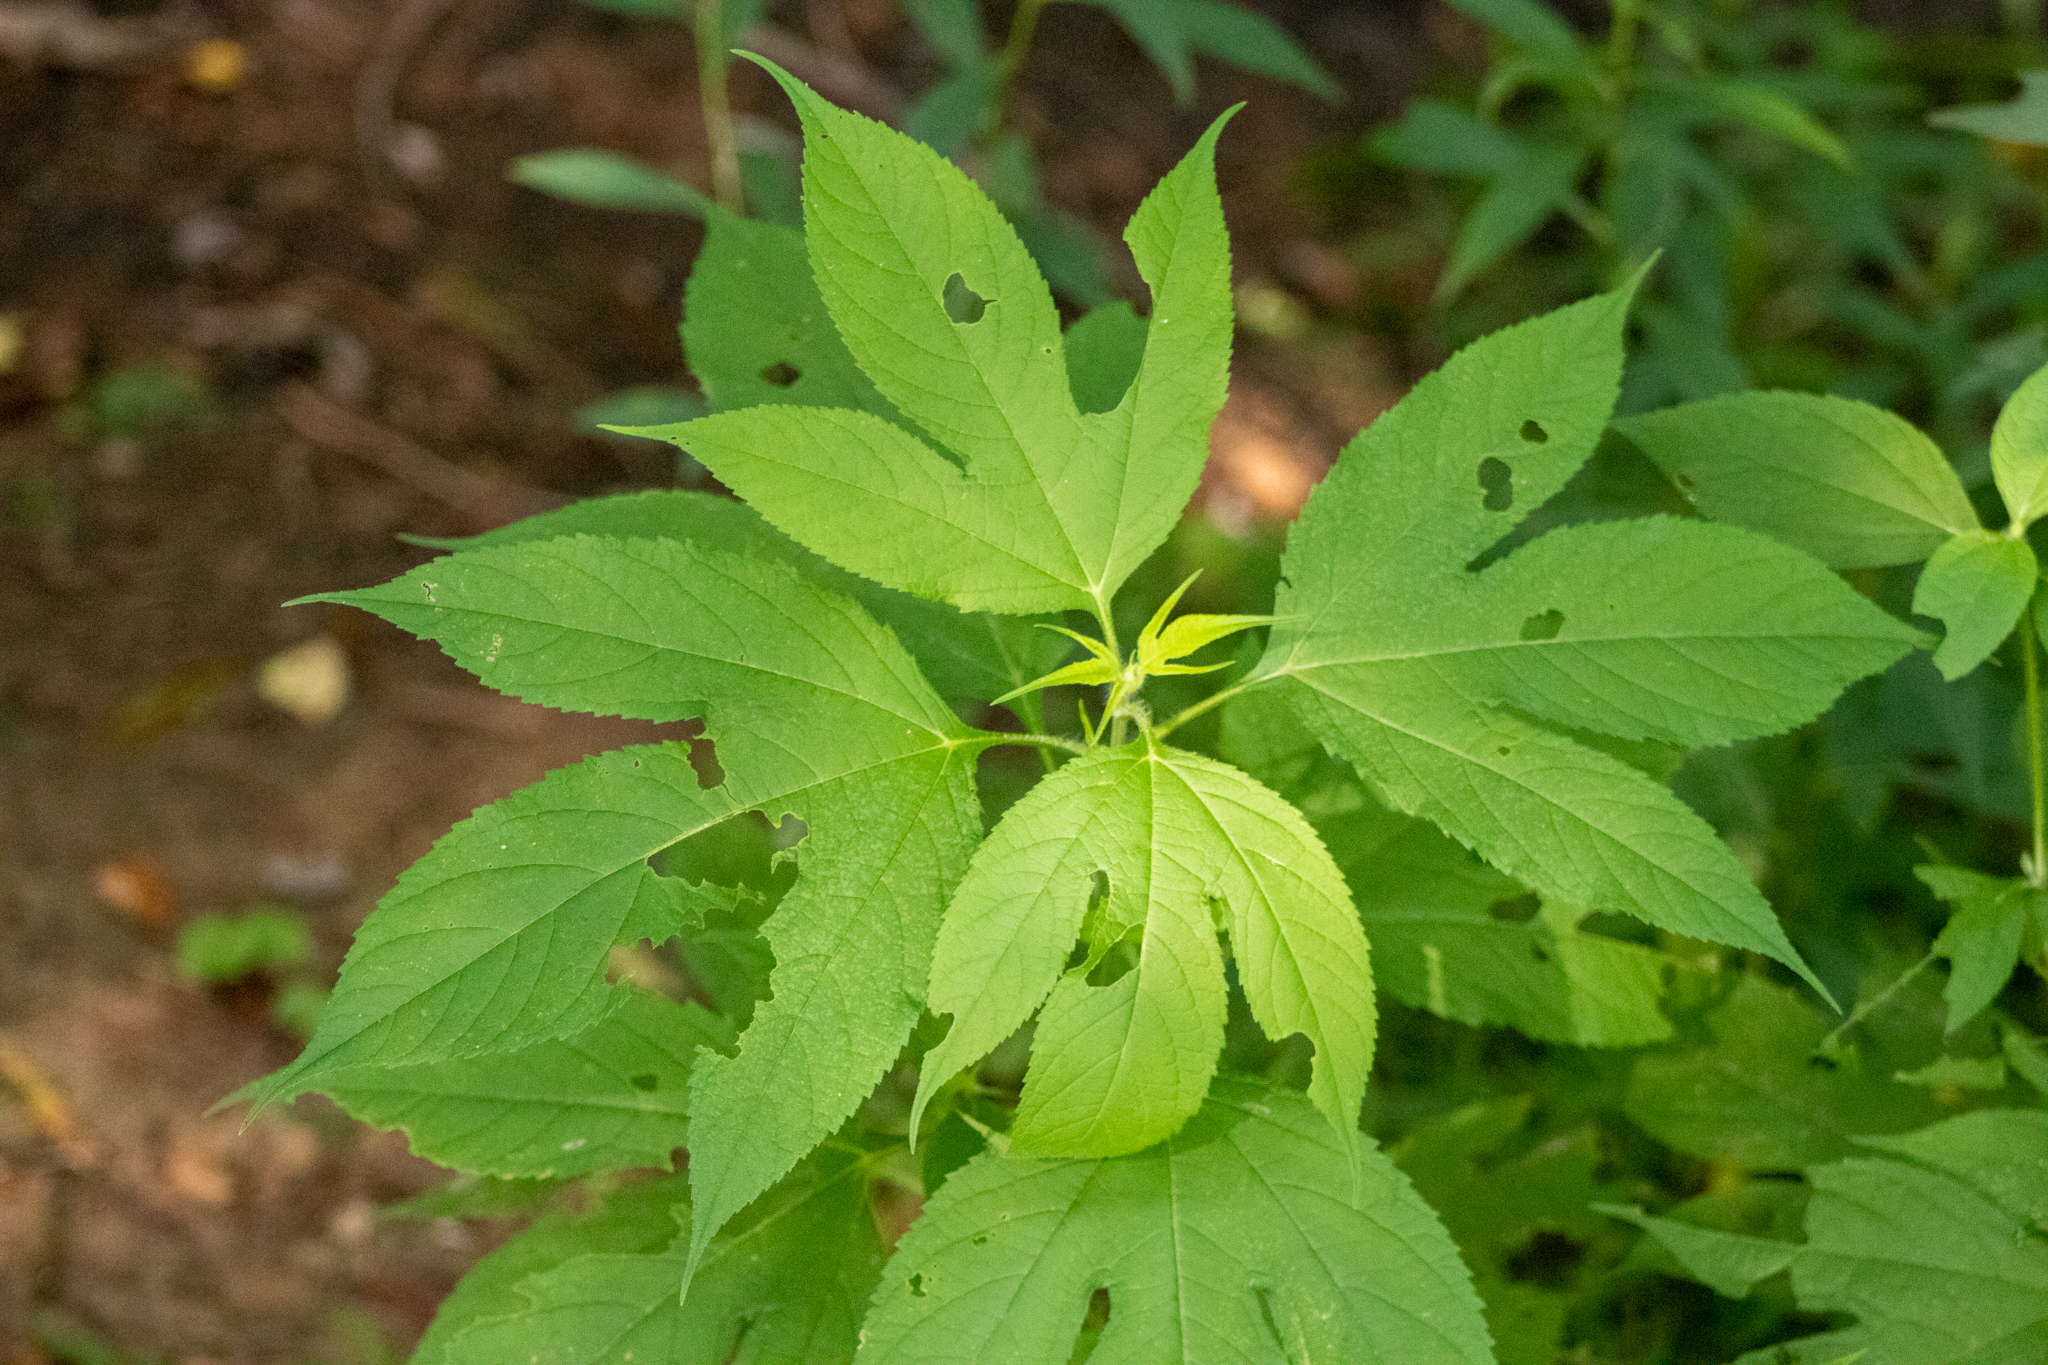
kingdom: Plantae
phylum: Tracheophyta
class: Magnoliopsida
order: Asterales
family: Asteraceae
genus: Ambrosia
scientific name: Ambrosia trifida
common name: Giant ragweed
